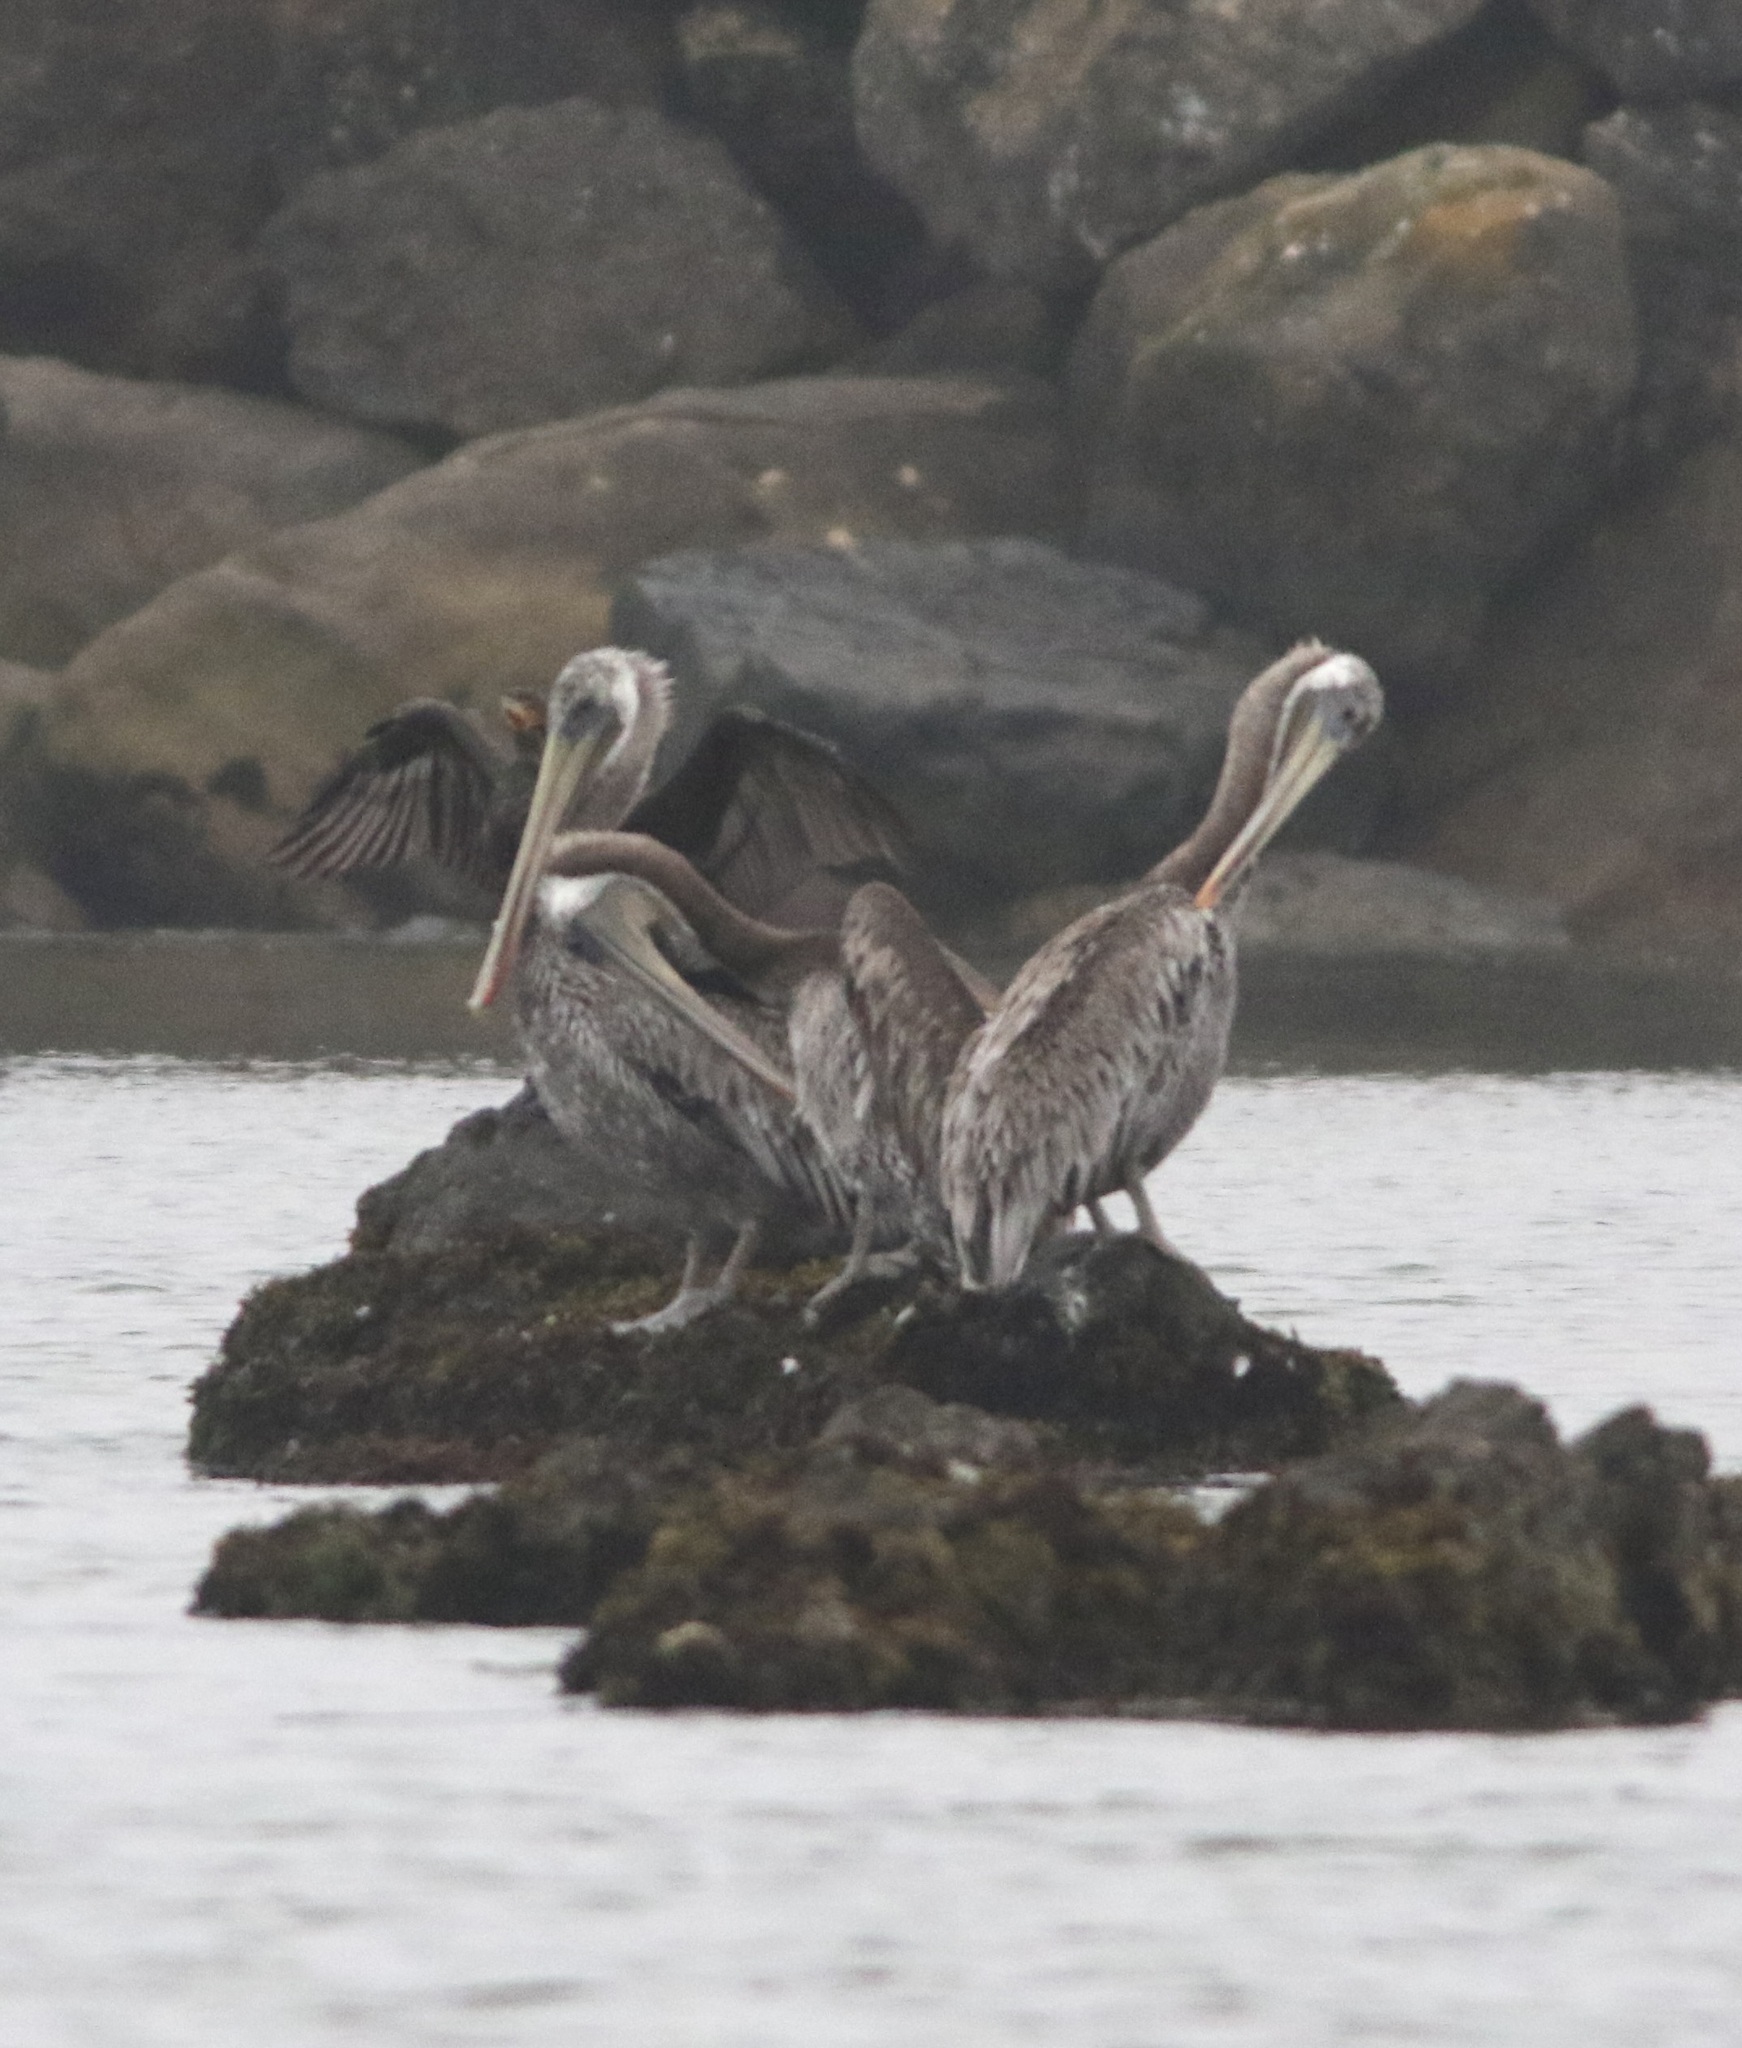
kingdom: Animalia
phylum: Chordata
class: Aves
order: Pelecaniformes
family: Pelecanidae
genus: Pelecanus
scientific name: Pelecanus occidentalis
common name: Brown pelican
